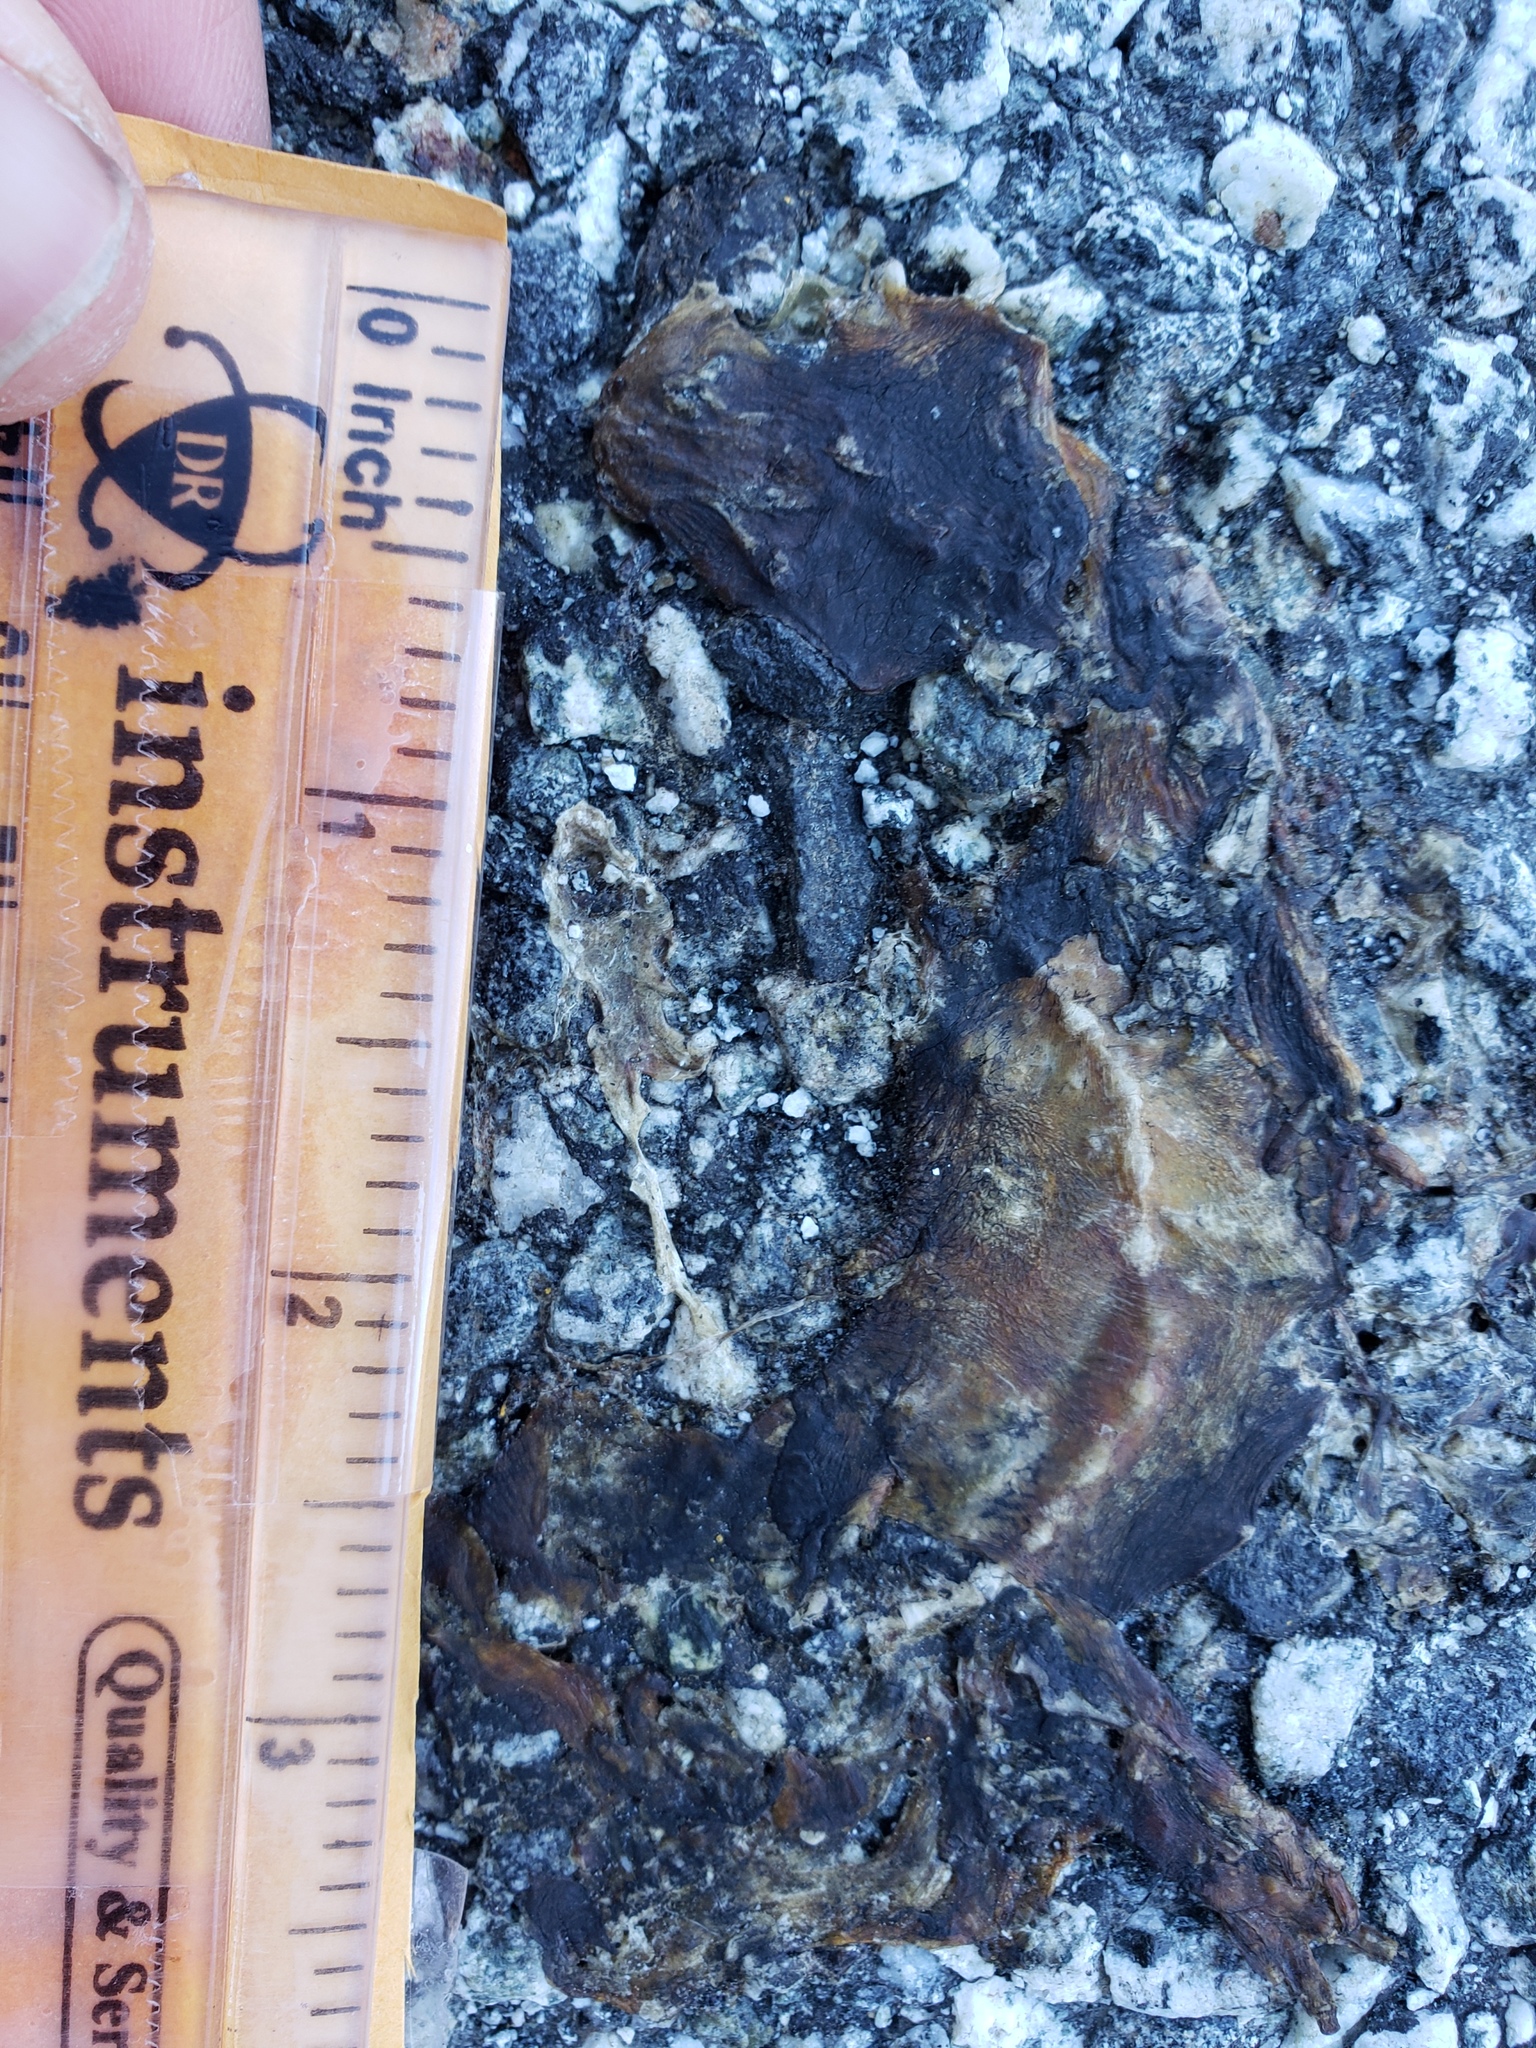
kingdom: Animalia
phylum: Chordata
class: Amphibia
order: Caudata
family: Salamandridae
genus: Taricha
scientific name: Taricha
